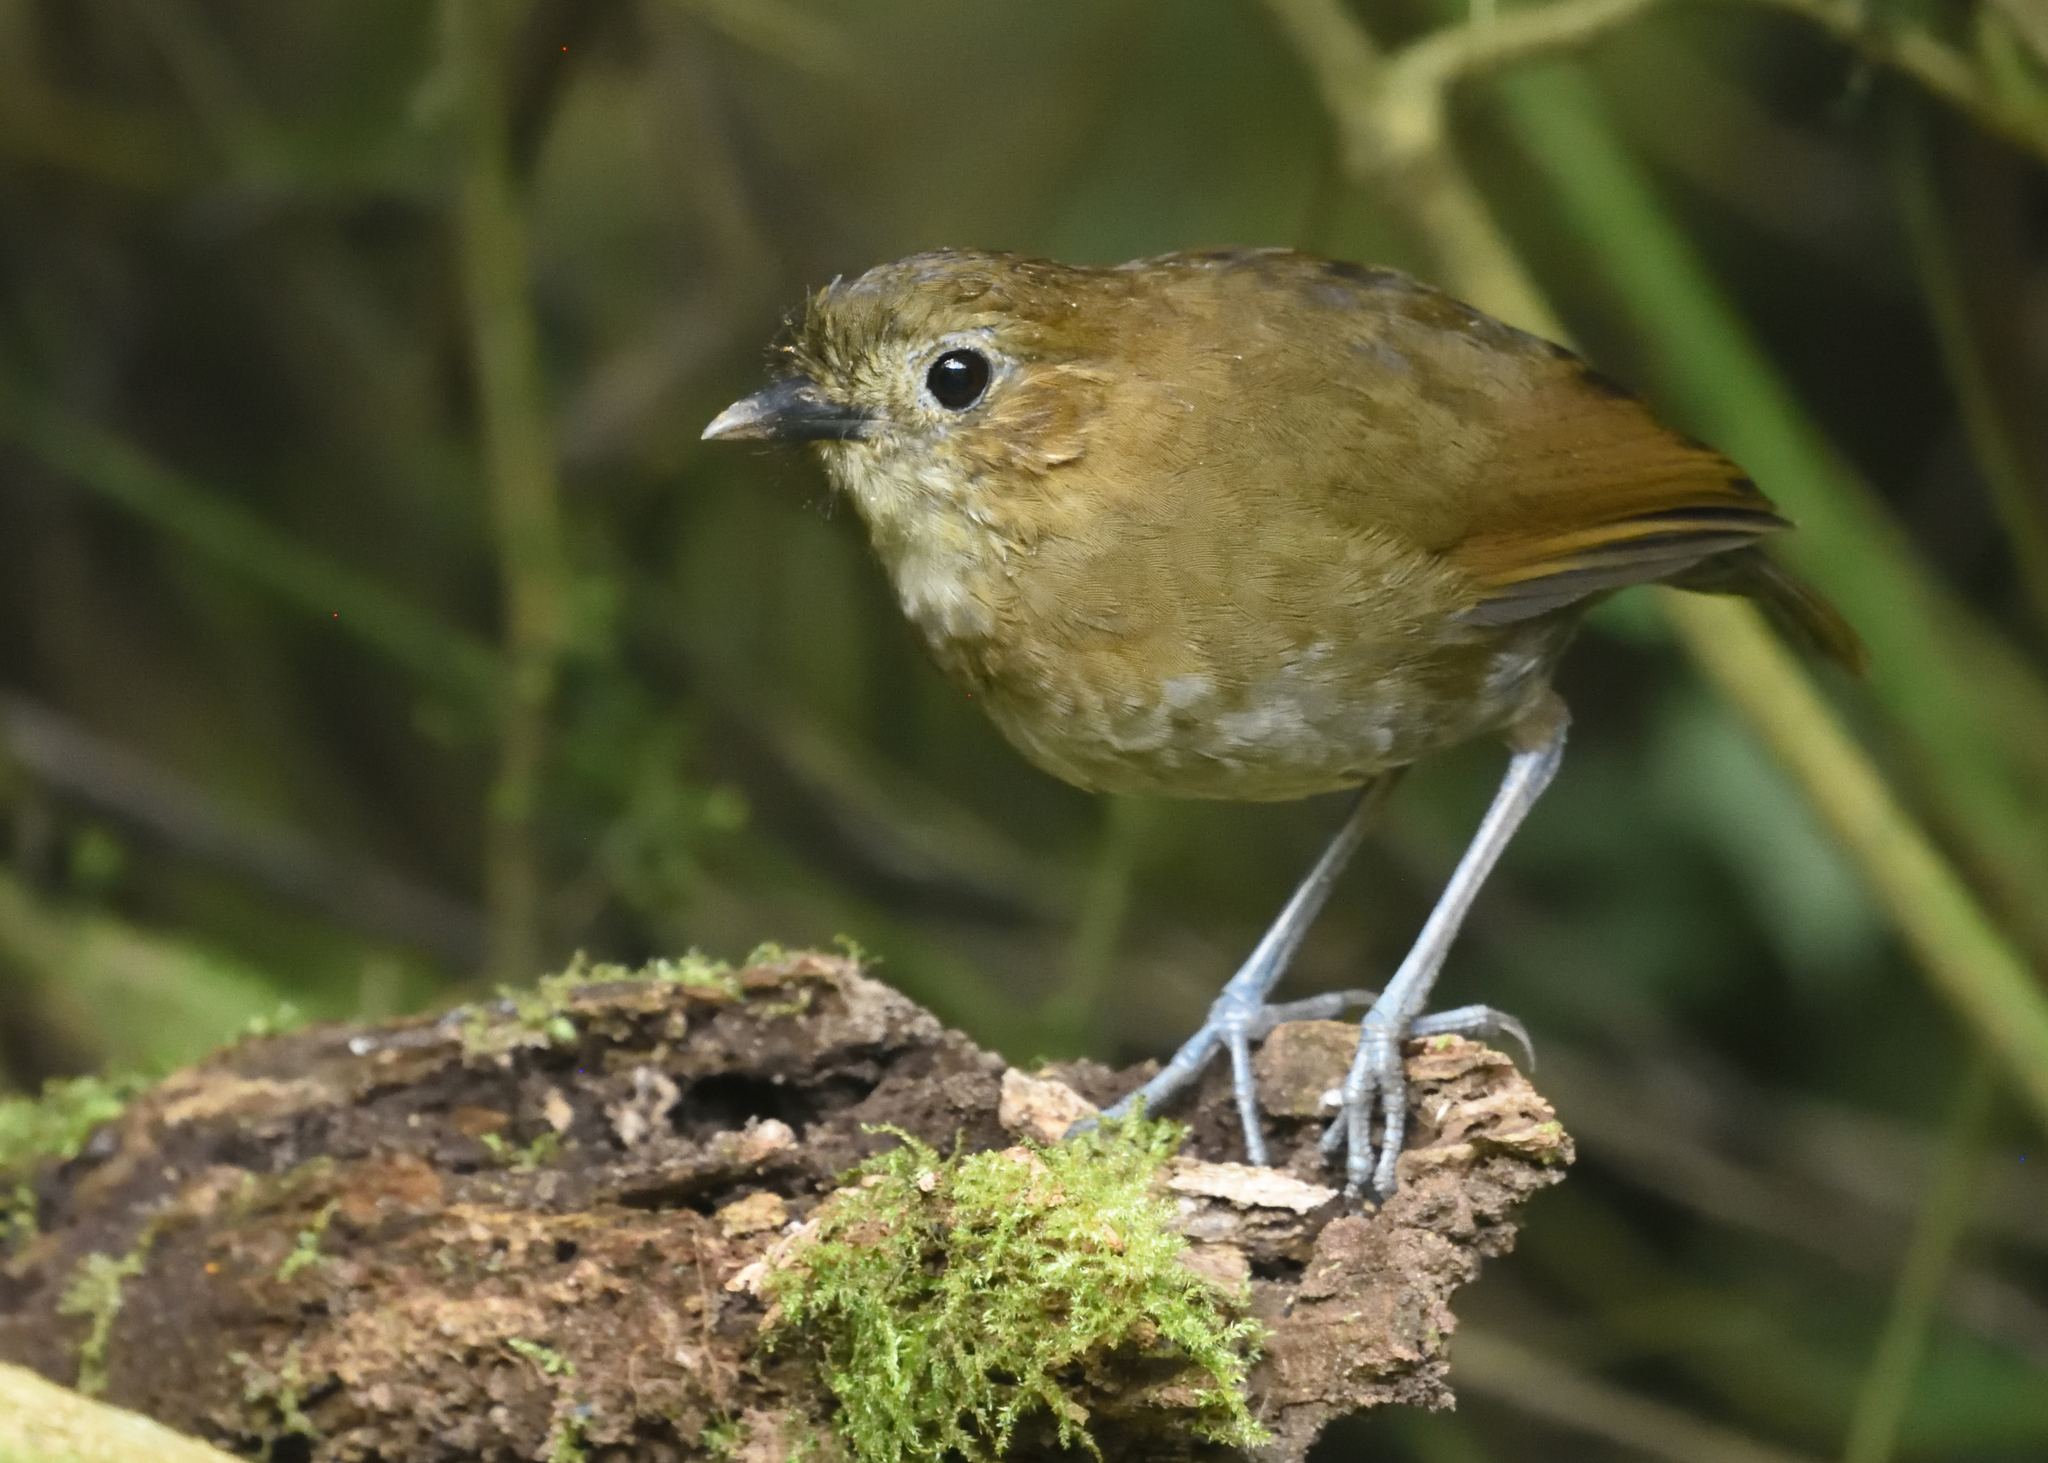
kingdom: Animalia
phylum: Chordata
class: Aves
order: Passeriformes
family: Grallariidae
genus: Grallaria
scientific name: Grallaria milleri
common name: Brown-banded antpitta
